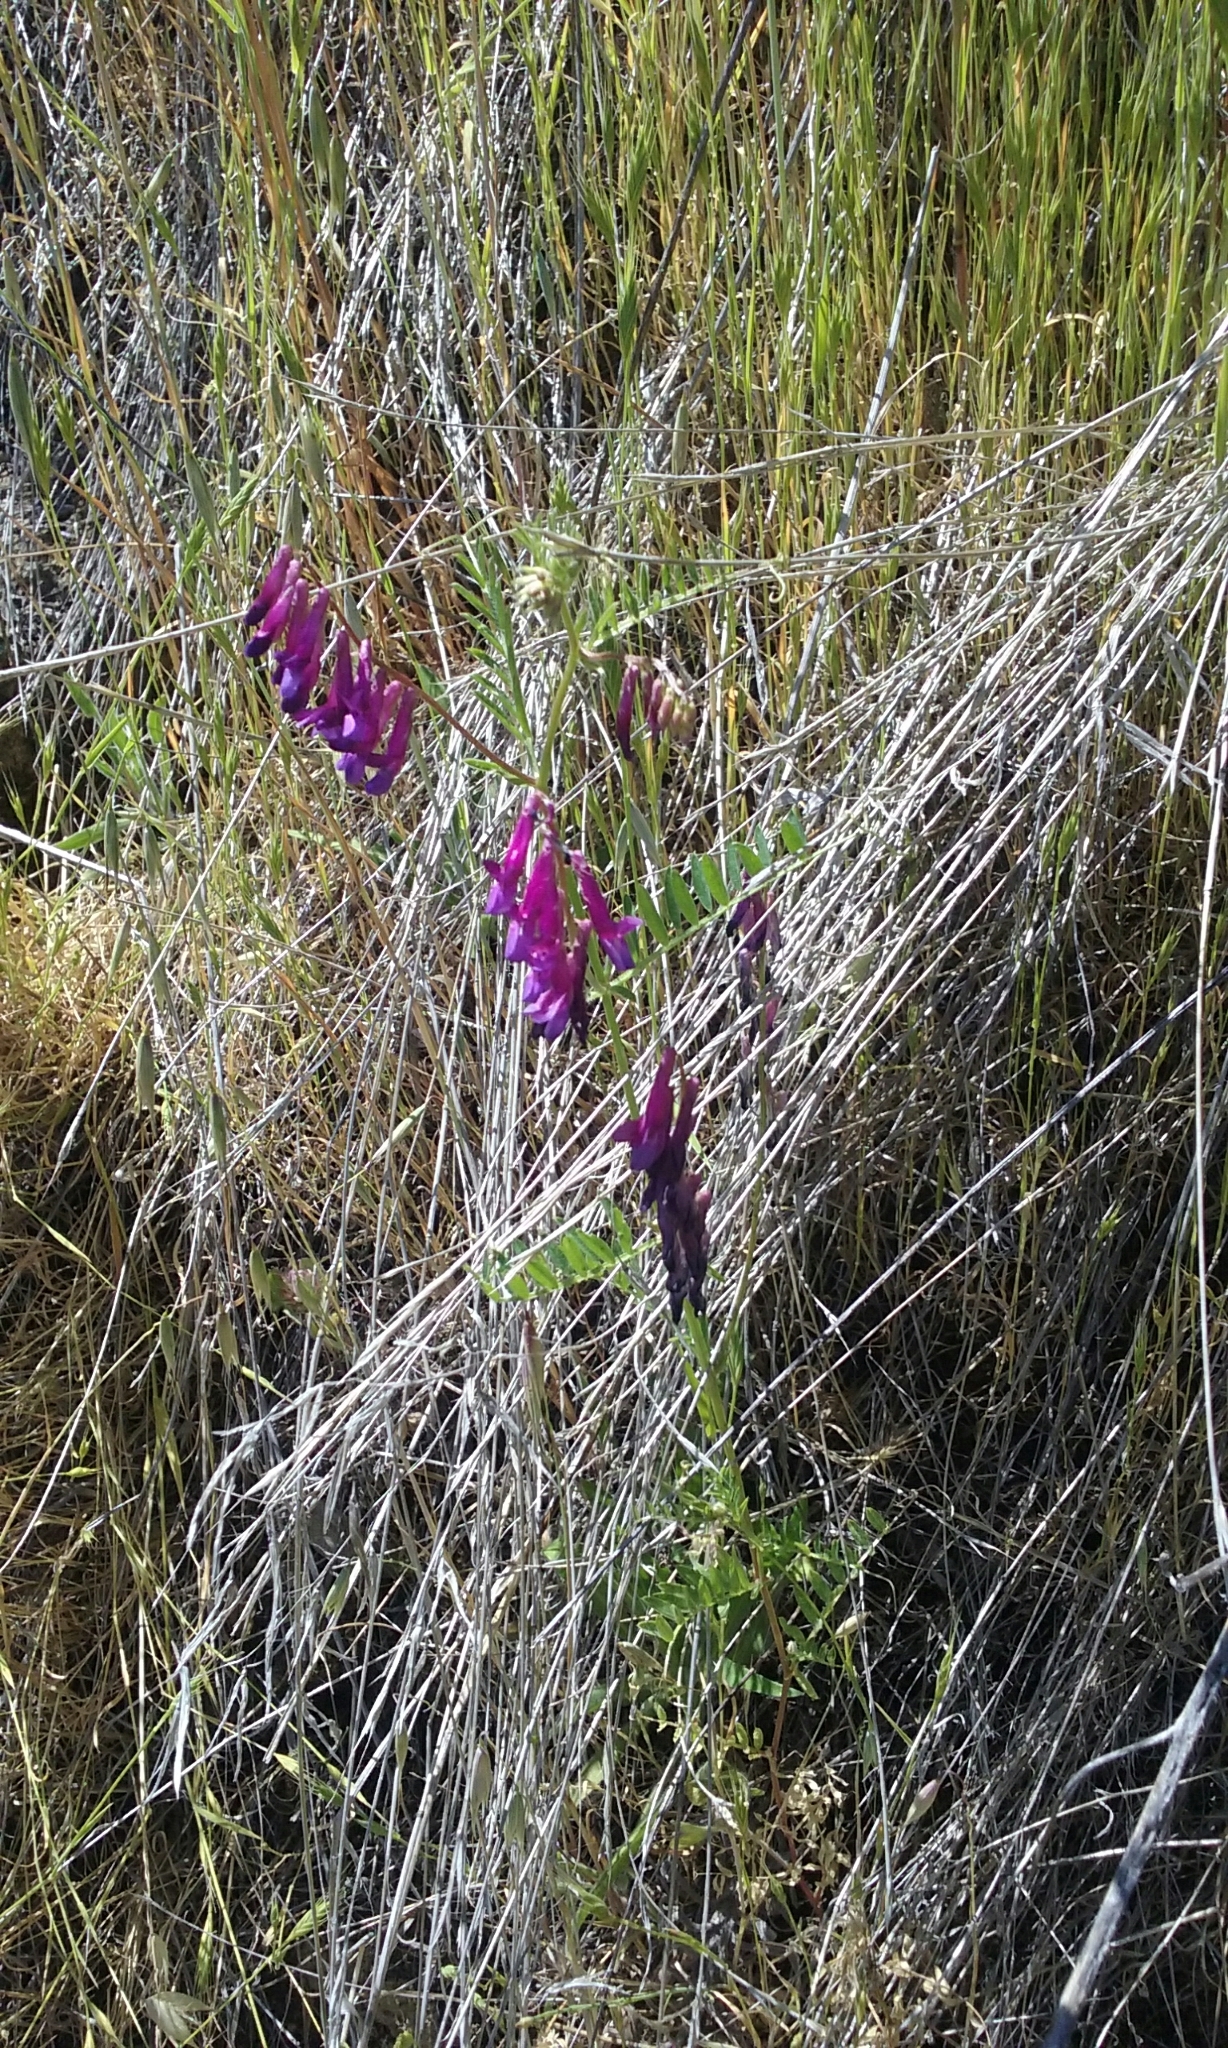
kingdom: Plantae
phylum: Tracheophyta
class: Magnoliopsida
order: Fabales
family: Fabaceae
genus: Vicia
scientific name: Vicia villosa
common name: Fodder vetch
